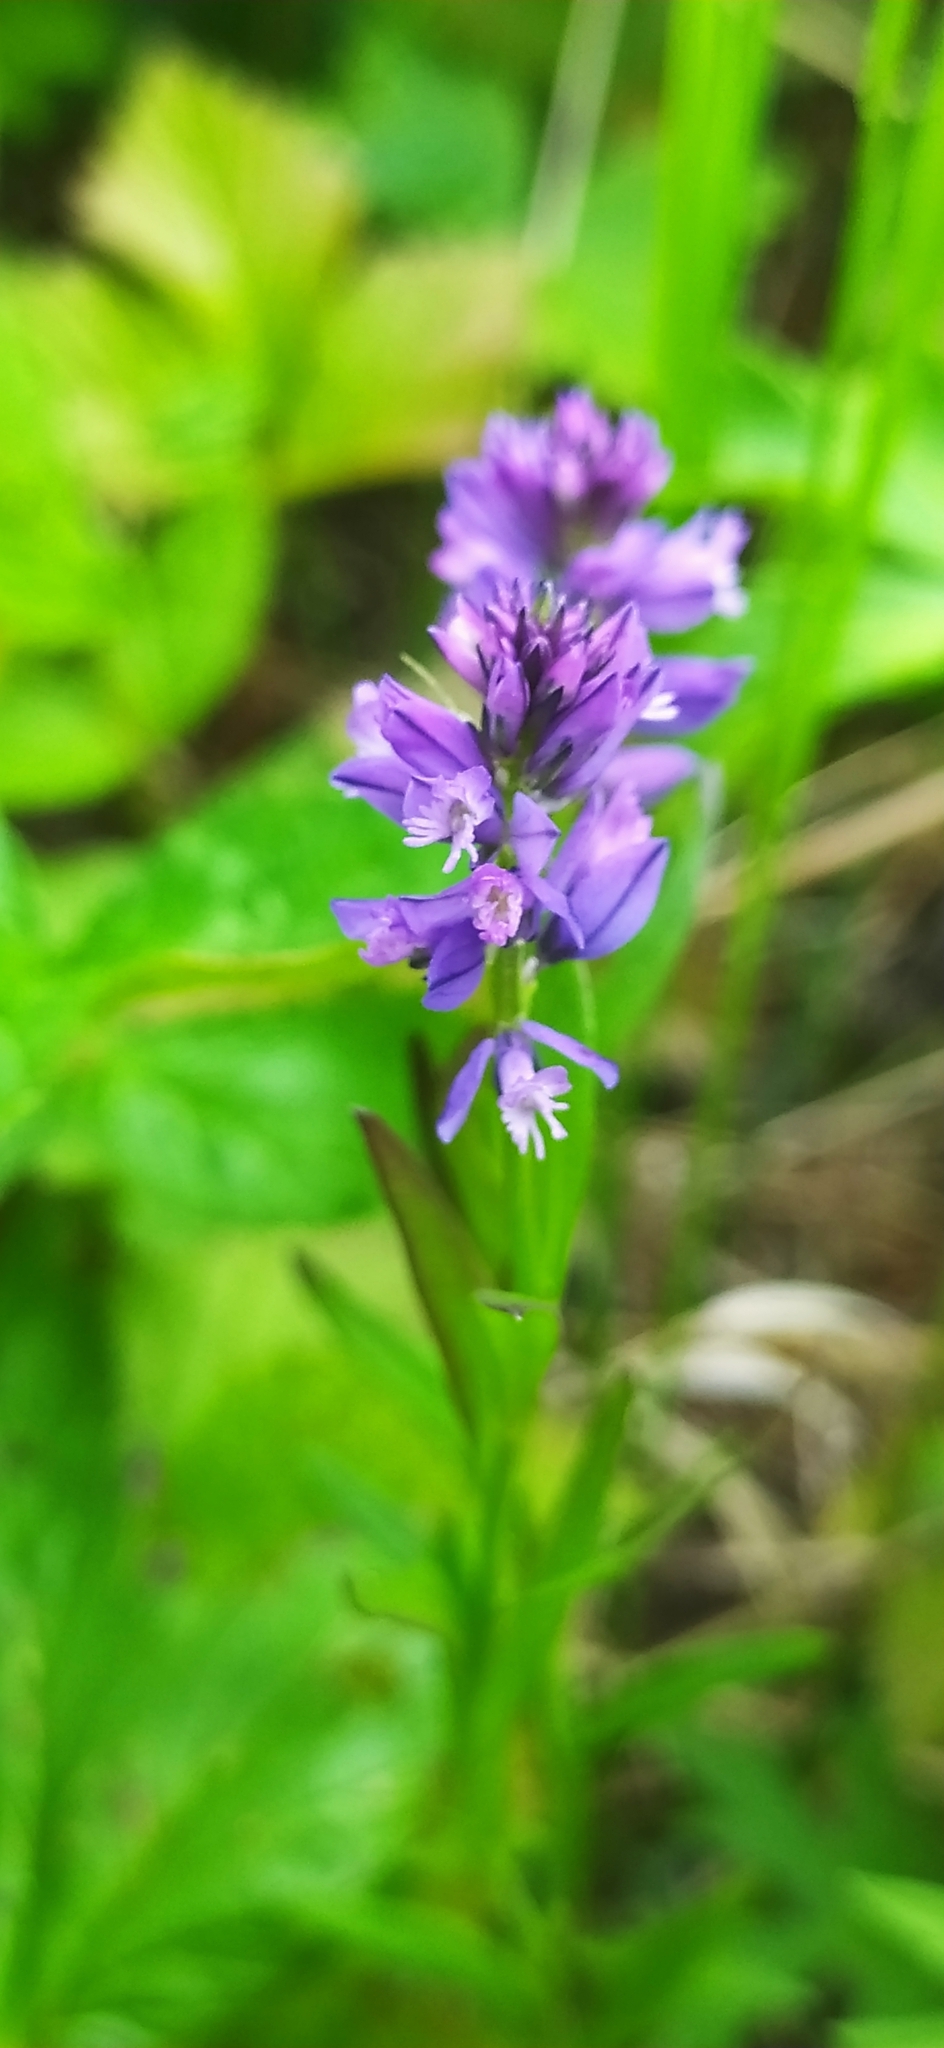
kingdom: Plantae
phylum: Tracheophyta
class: Magnoliopsida
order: Fabales
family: Polygalaceae
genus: Polygala
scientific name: Polygala comosa
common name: Tufted milkwort
